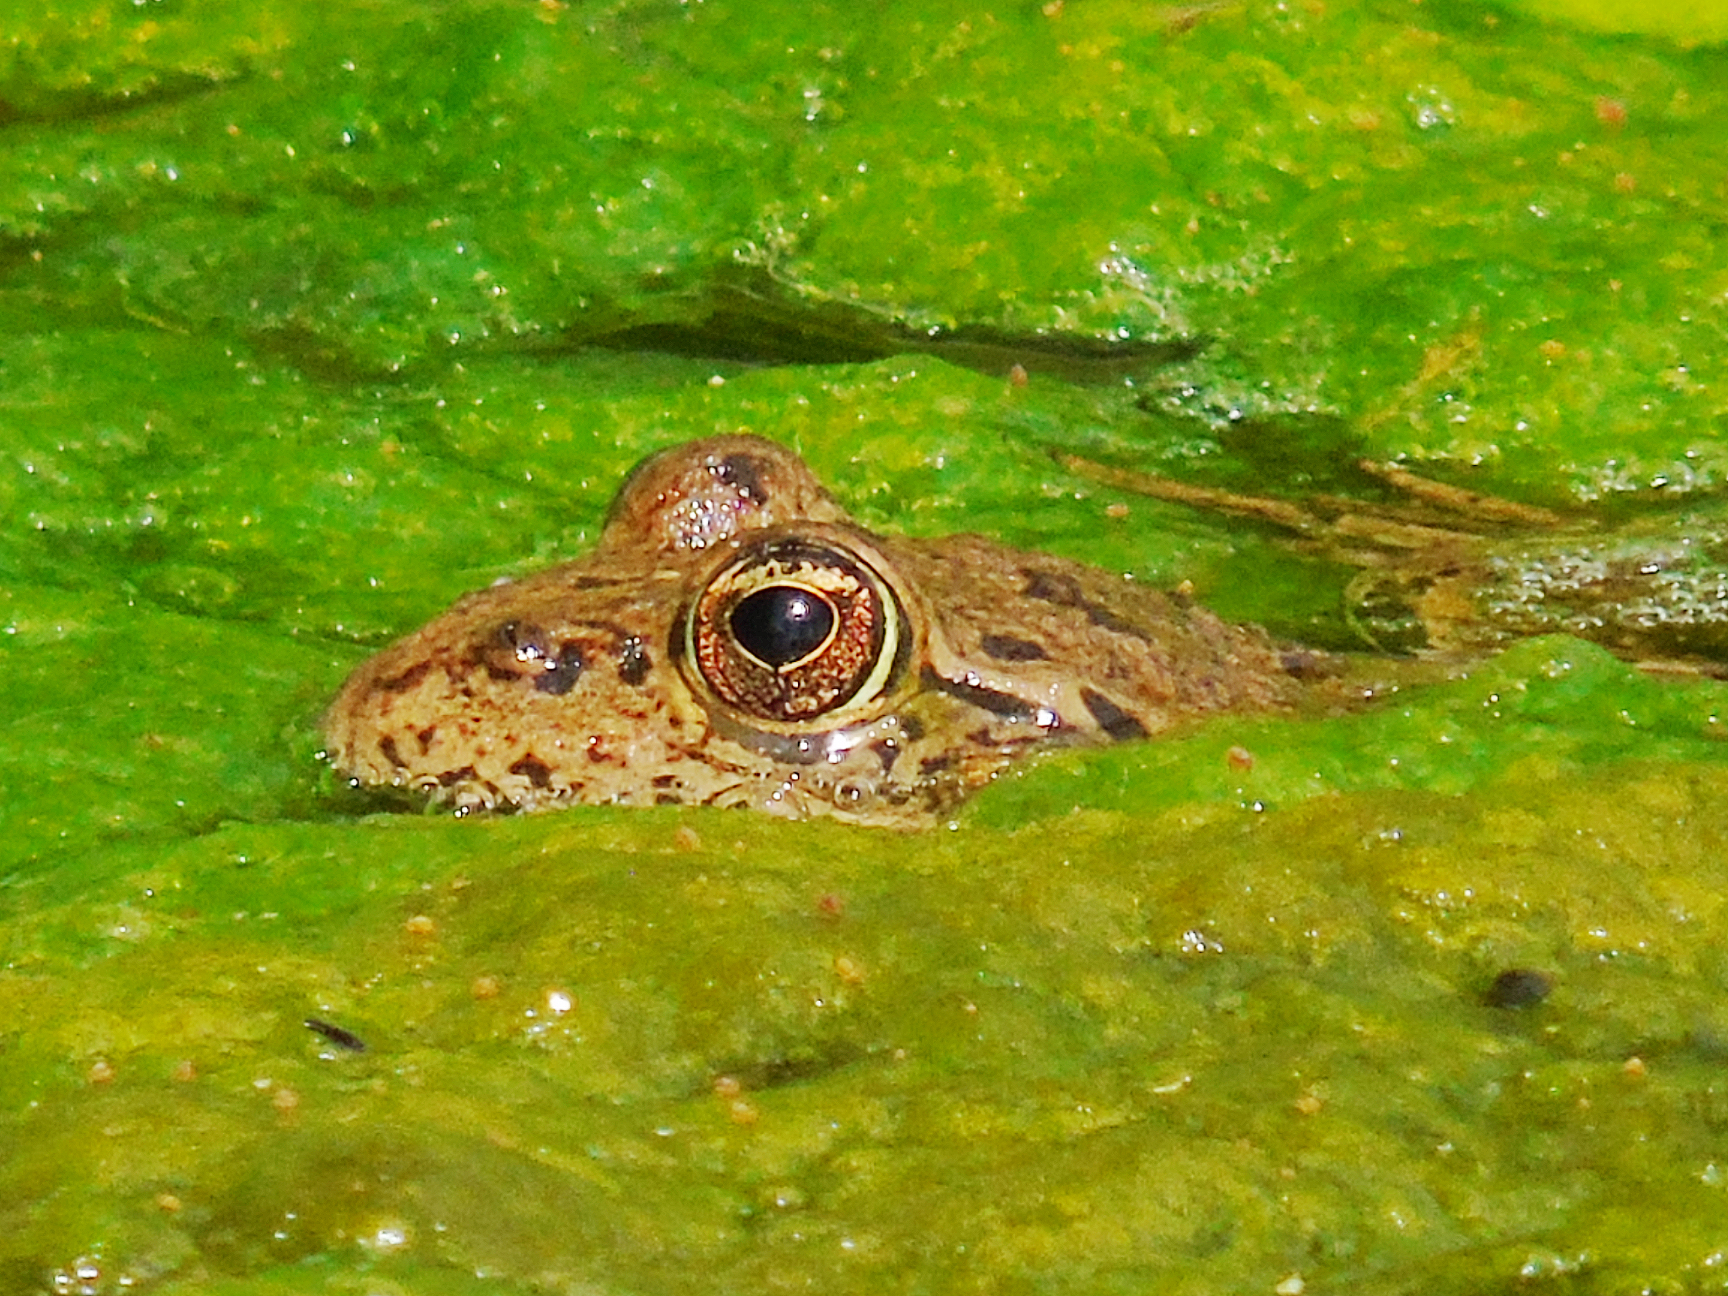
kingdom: Animalia
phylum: Chordata
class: Amphibia
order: Anura
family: Ranidae
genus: Pelophylax
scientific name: Pelophylax ridibundus
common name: Marsh frog
